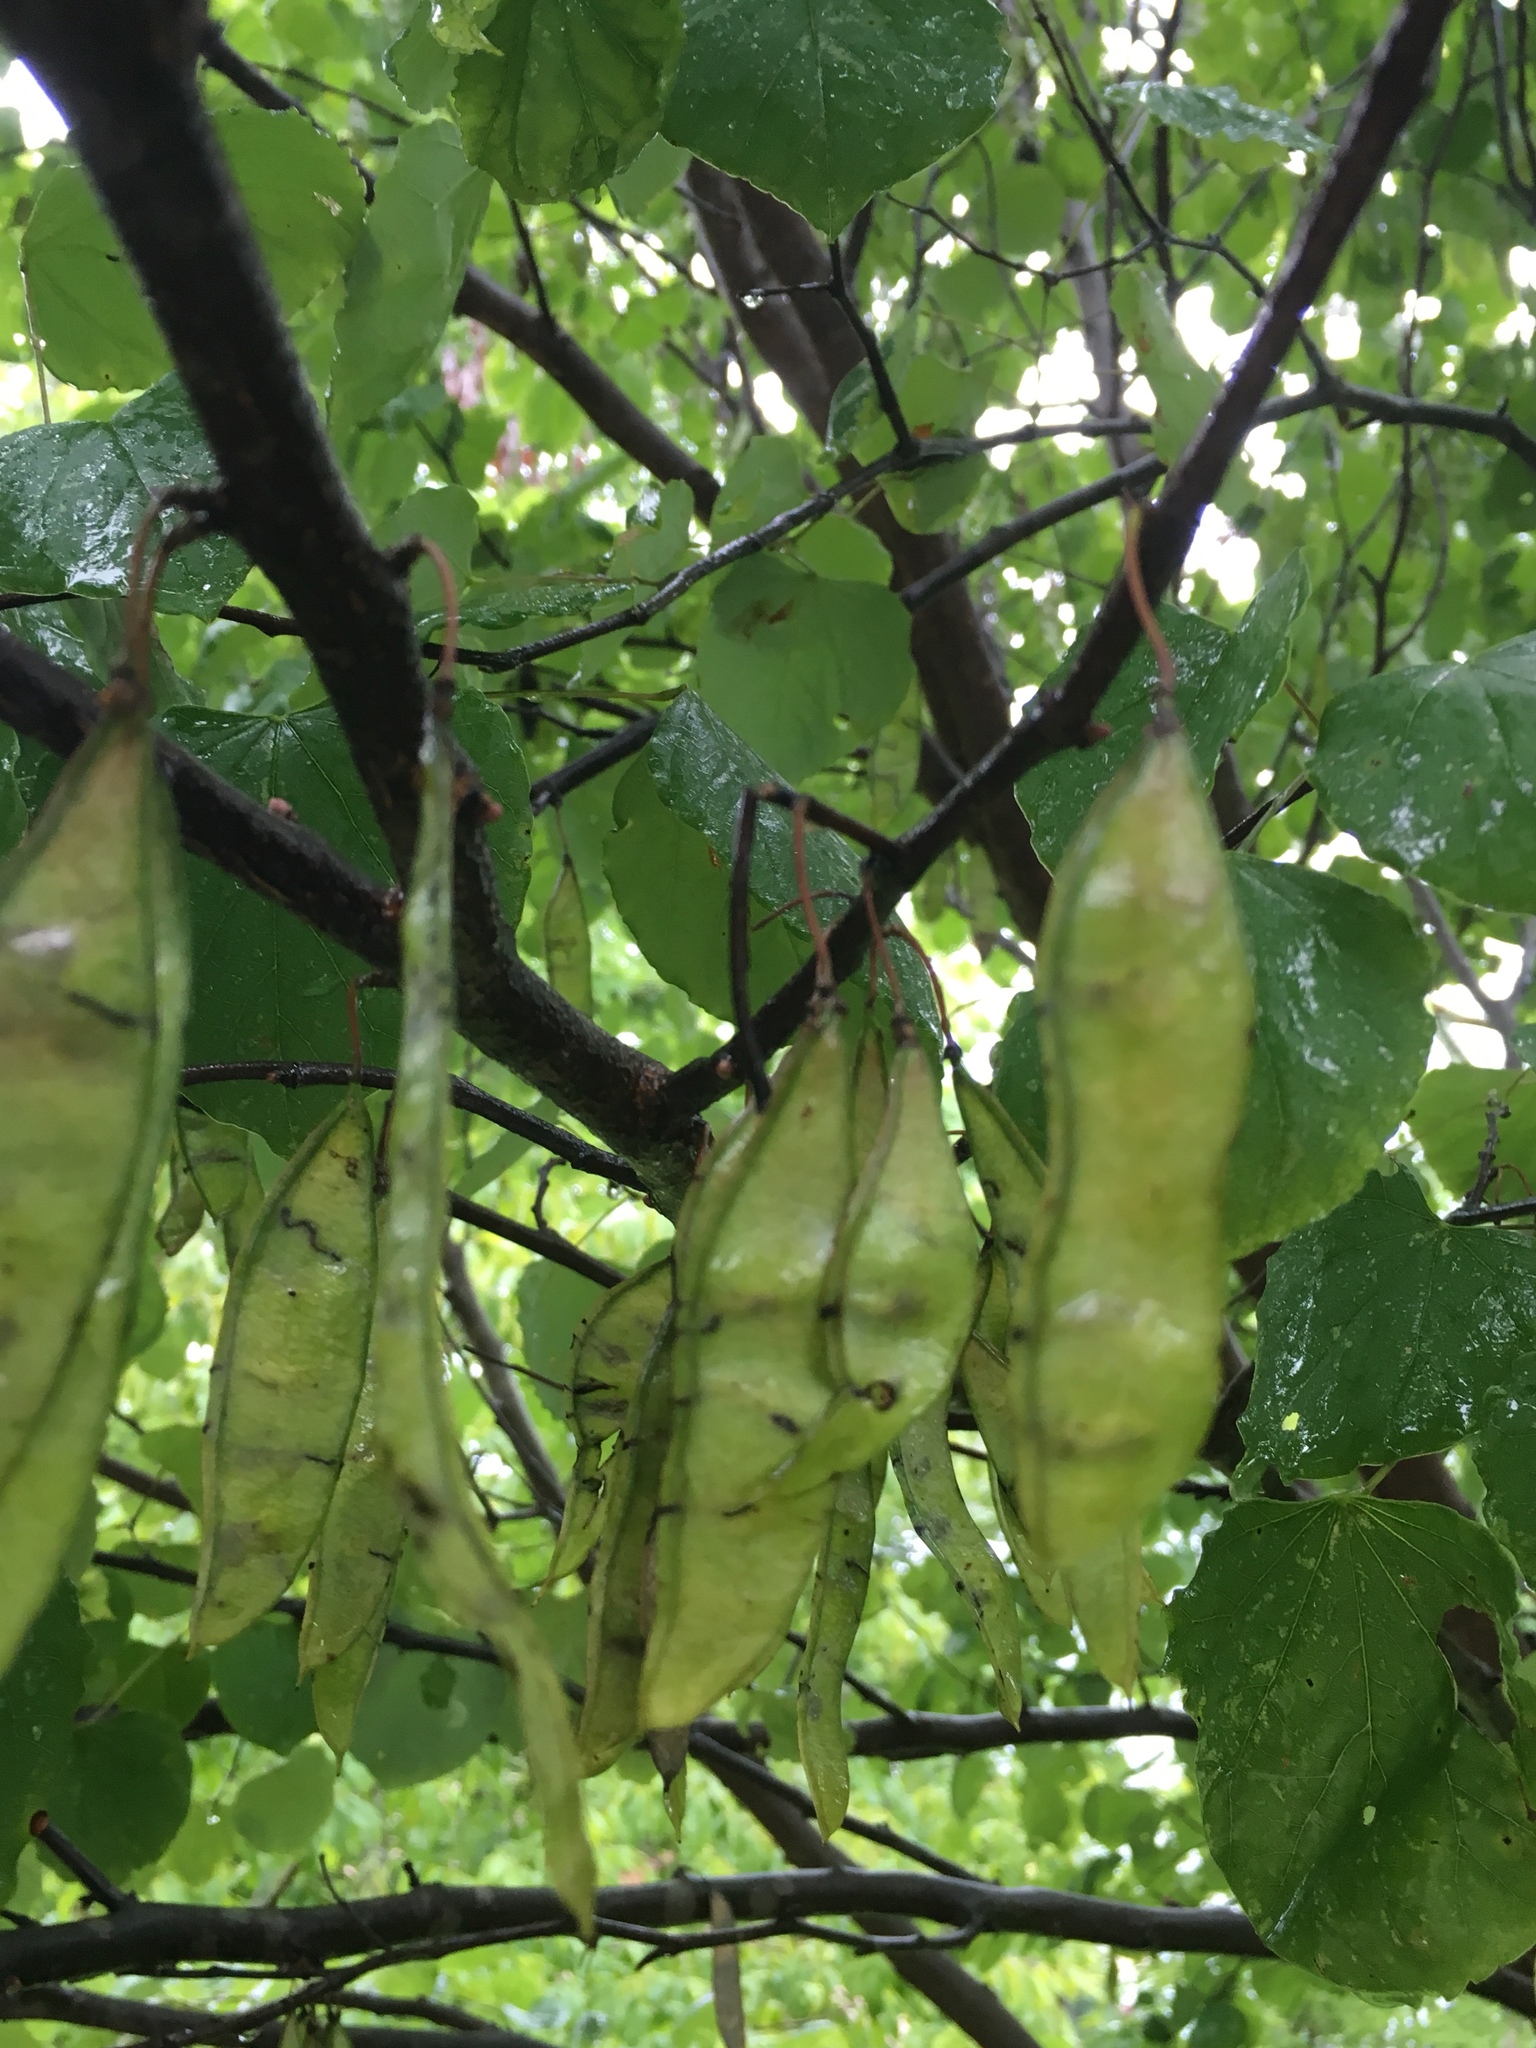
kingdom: Plantae
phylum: Tracheophyta
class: Magnoliopsida
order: Fabales
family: Fabaceae
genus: Cercis
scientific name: Cercis canadensis
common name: Eastern redbud
